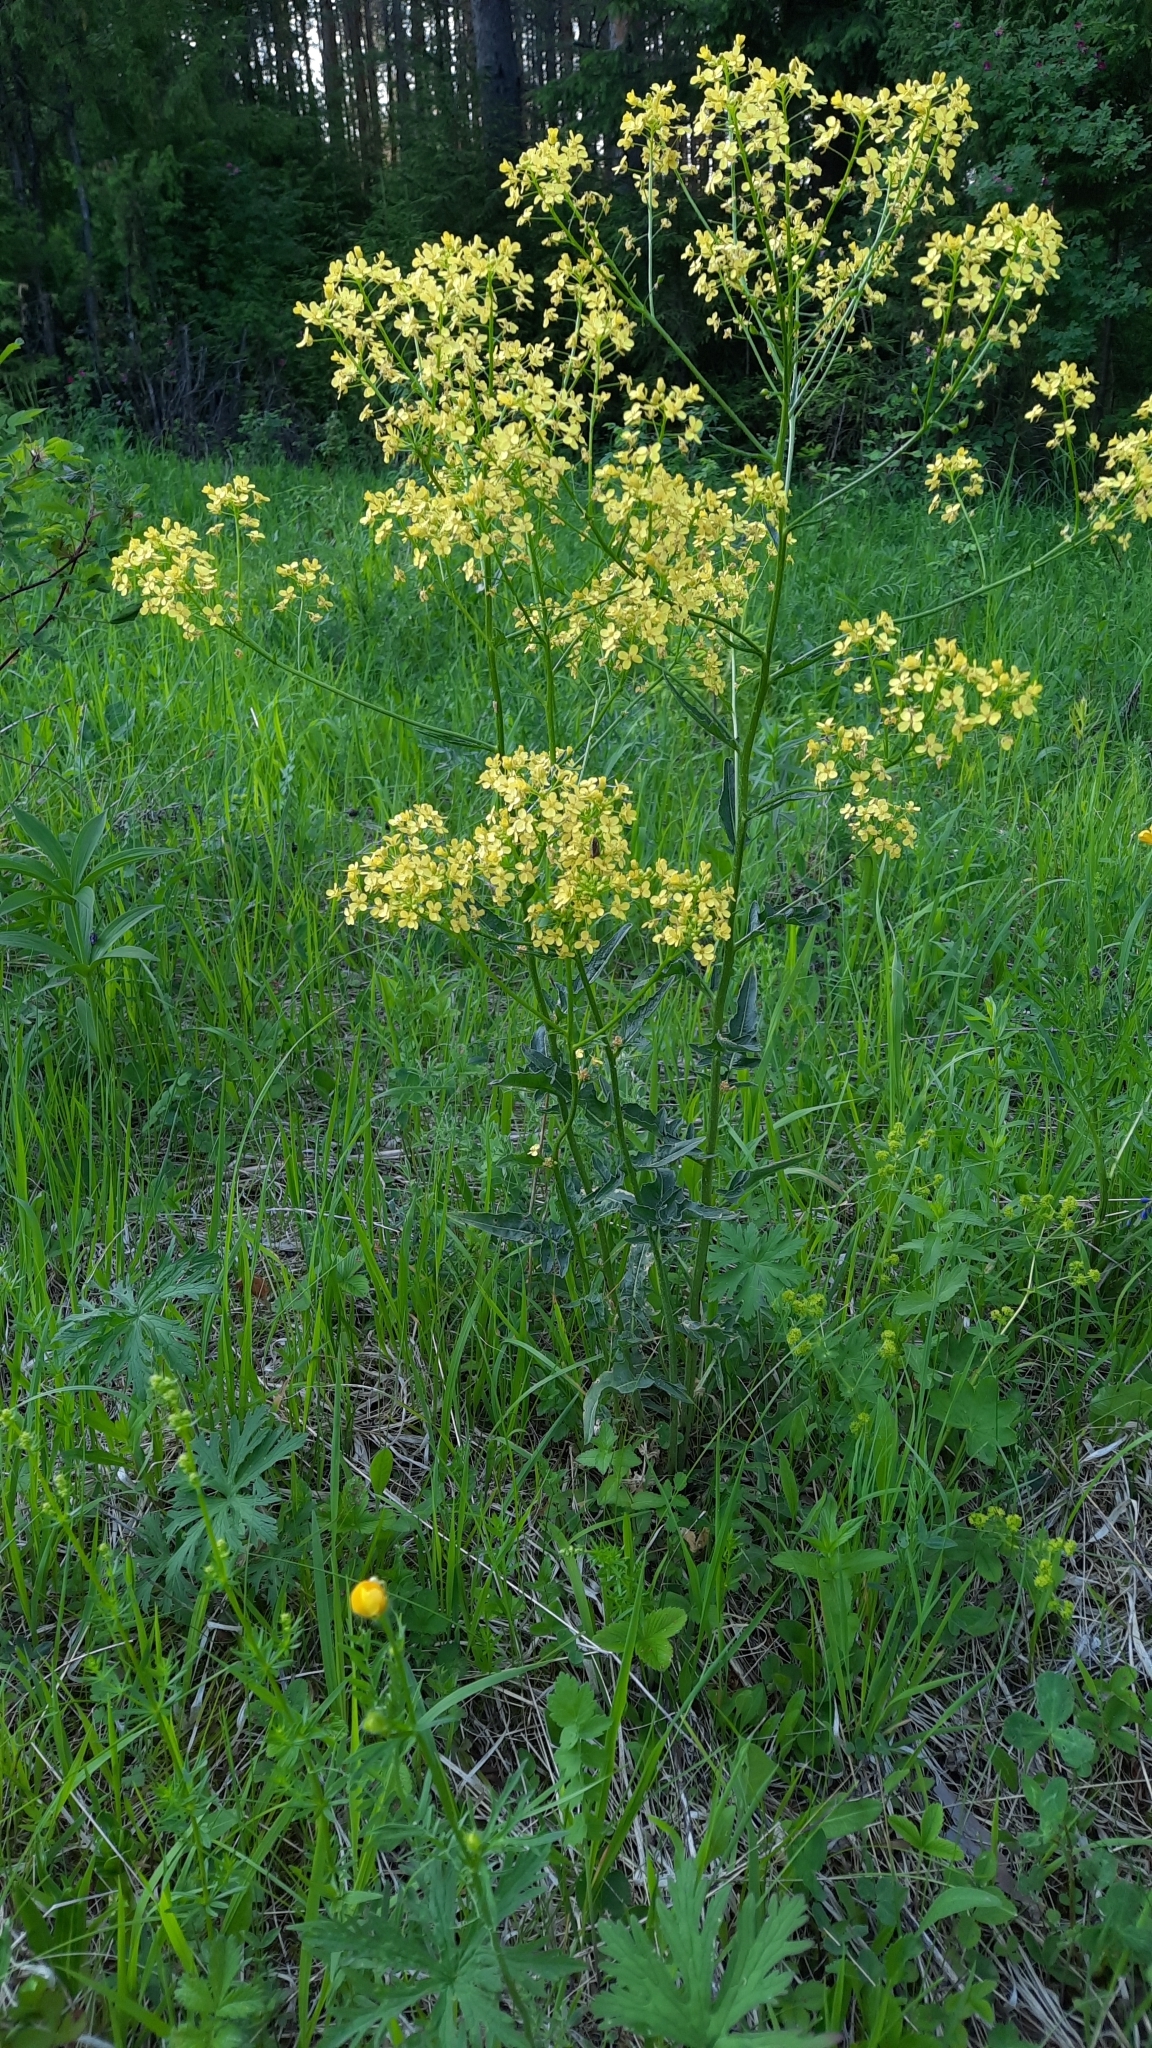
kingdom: Plantae
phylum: Tracheophyta
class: Magnoliopsida
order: Brassicales
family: Brassicaceae
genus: Bunias
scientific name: Bunias orientalis
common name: Warty-cabbage
